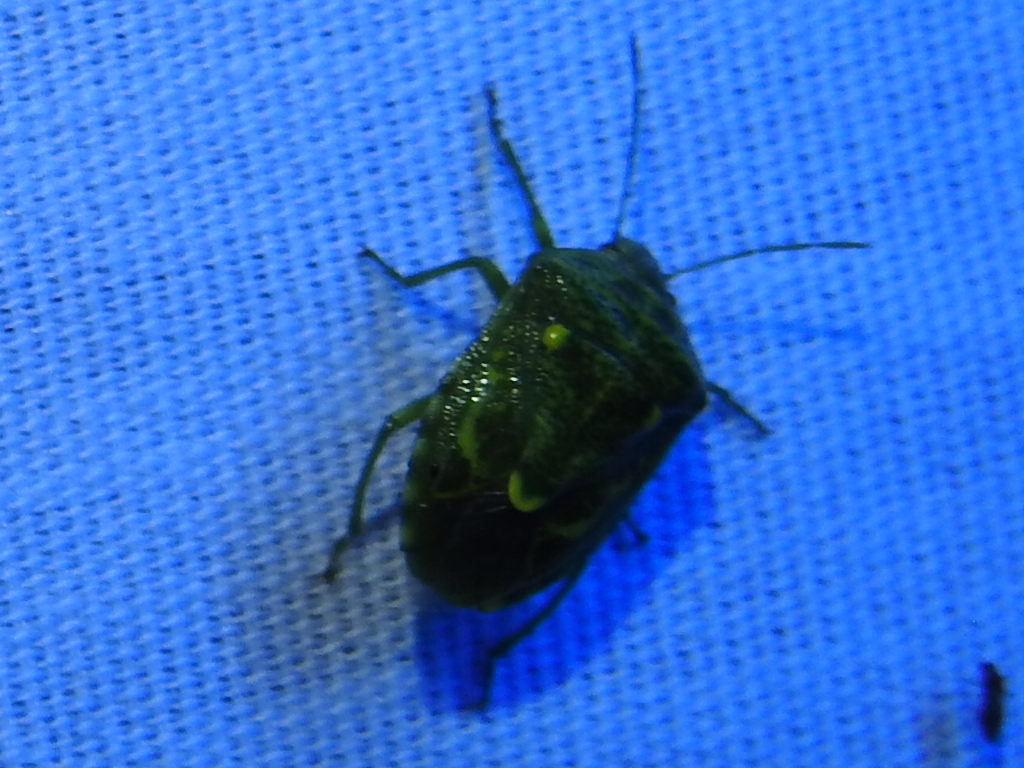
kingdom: Animalia
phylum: Arthropoda
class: Insecta
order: Hemiptera
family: Pentatomidae
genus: Banasa
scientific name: Banasa euchlora
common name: Cedar berry bug
